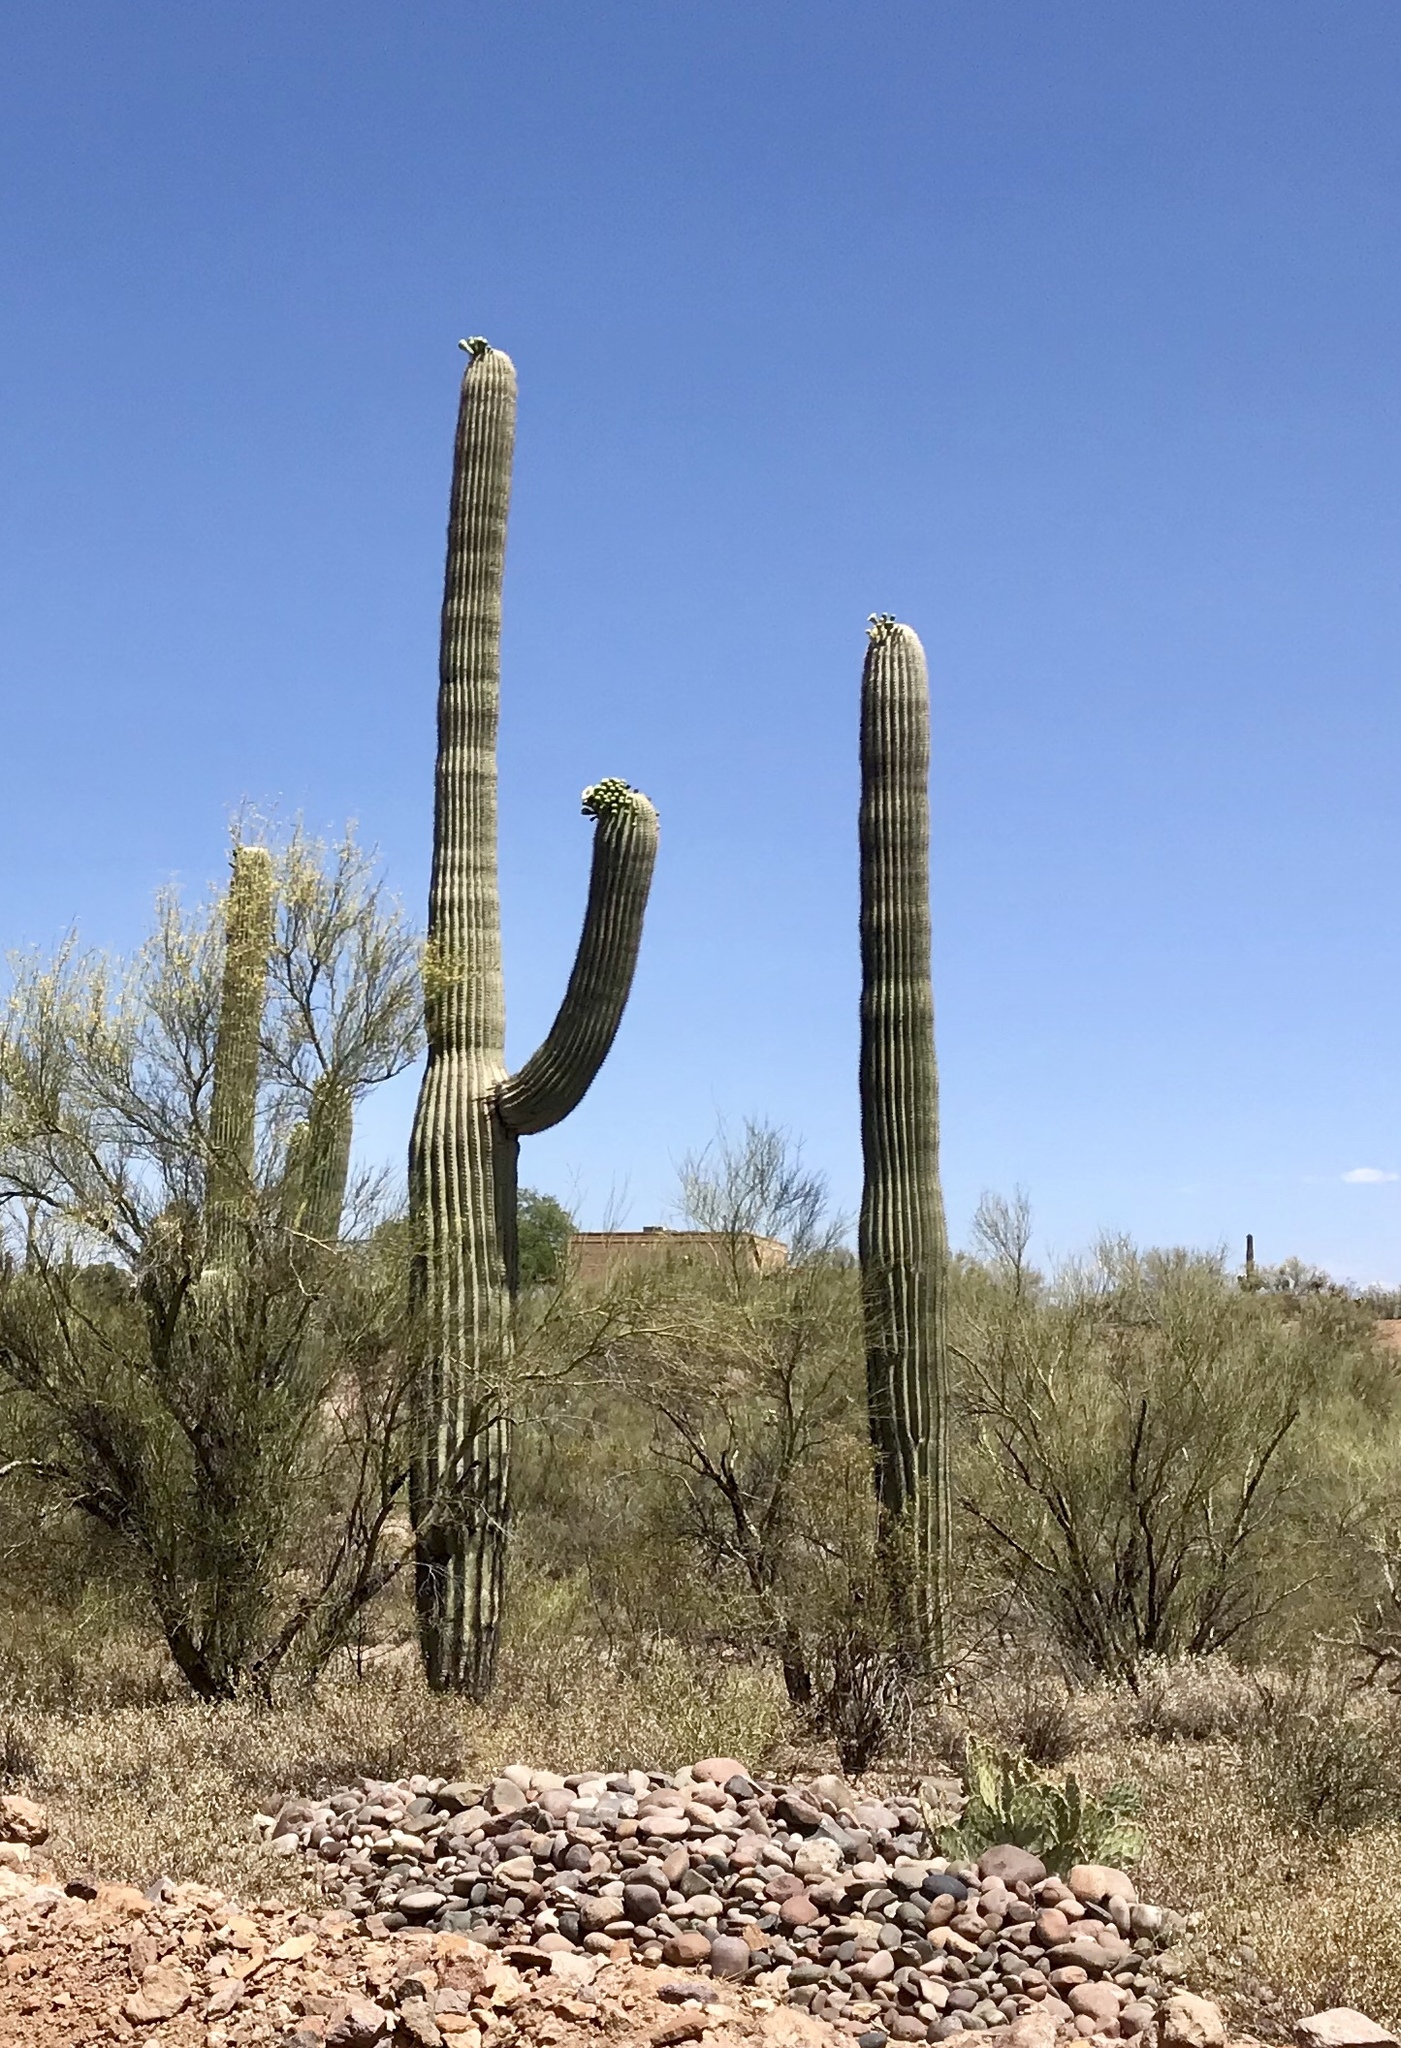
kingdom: Plantae
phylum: Tracheophyta
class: Magnoliopsida
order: Caryophyllales
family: Cactaceae
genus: Carnegiea
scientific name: Carnegiea gigantea
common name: Saguaro
